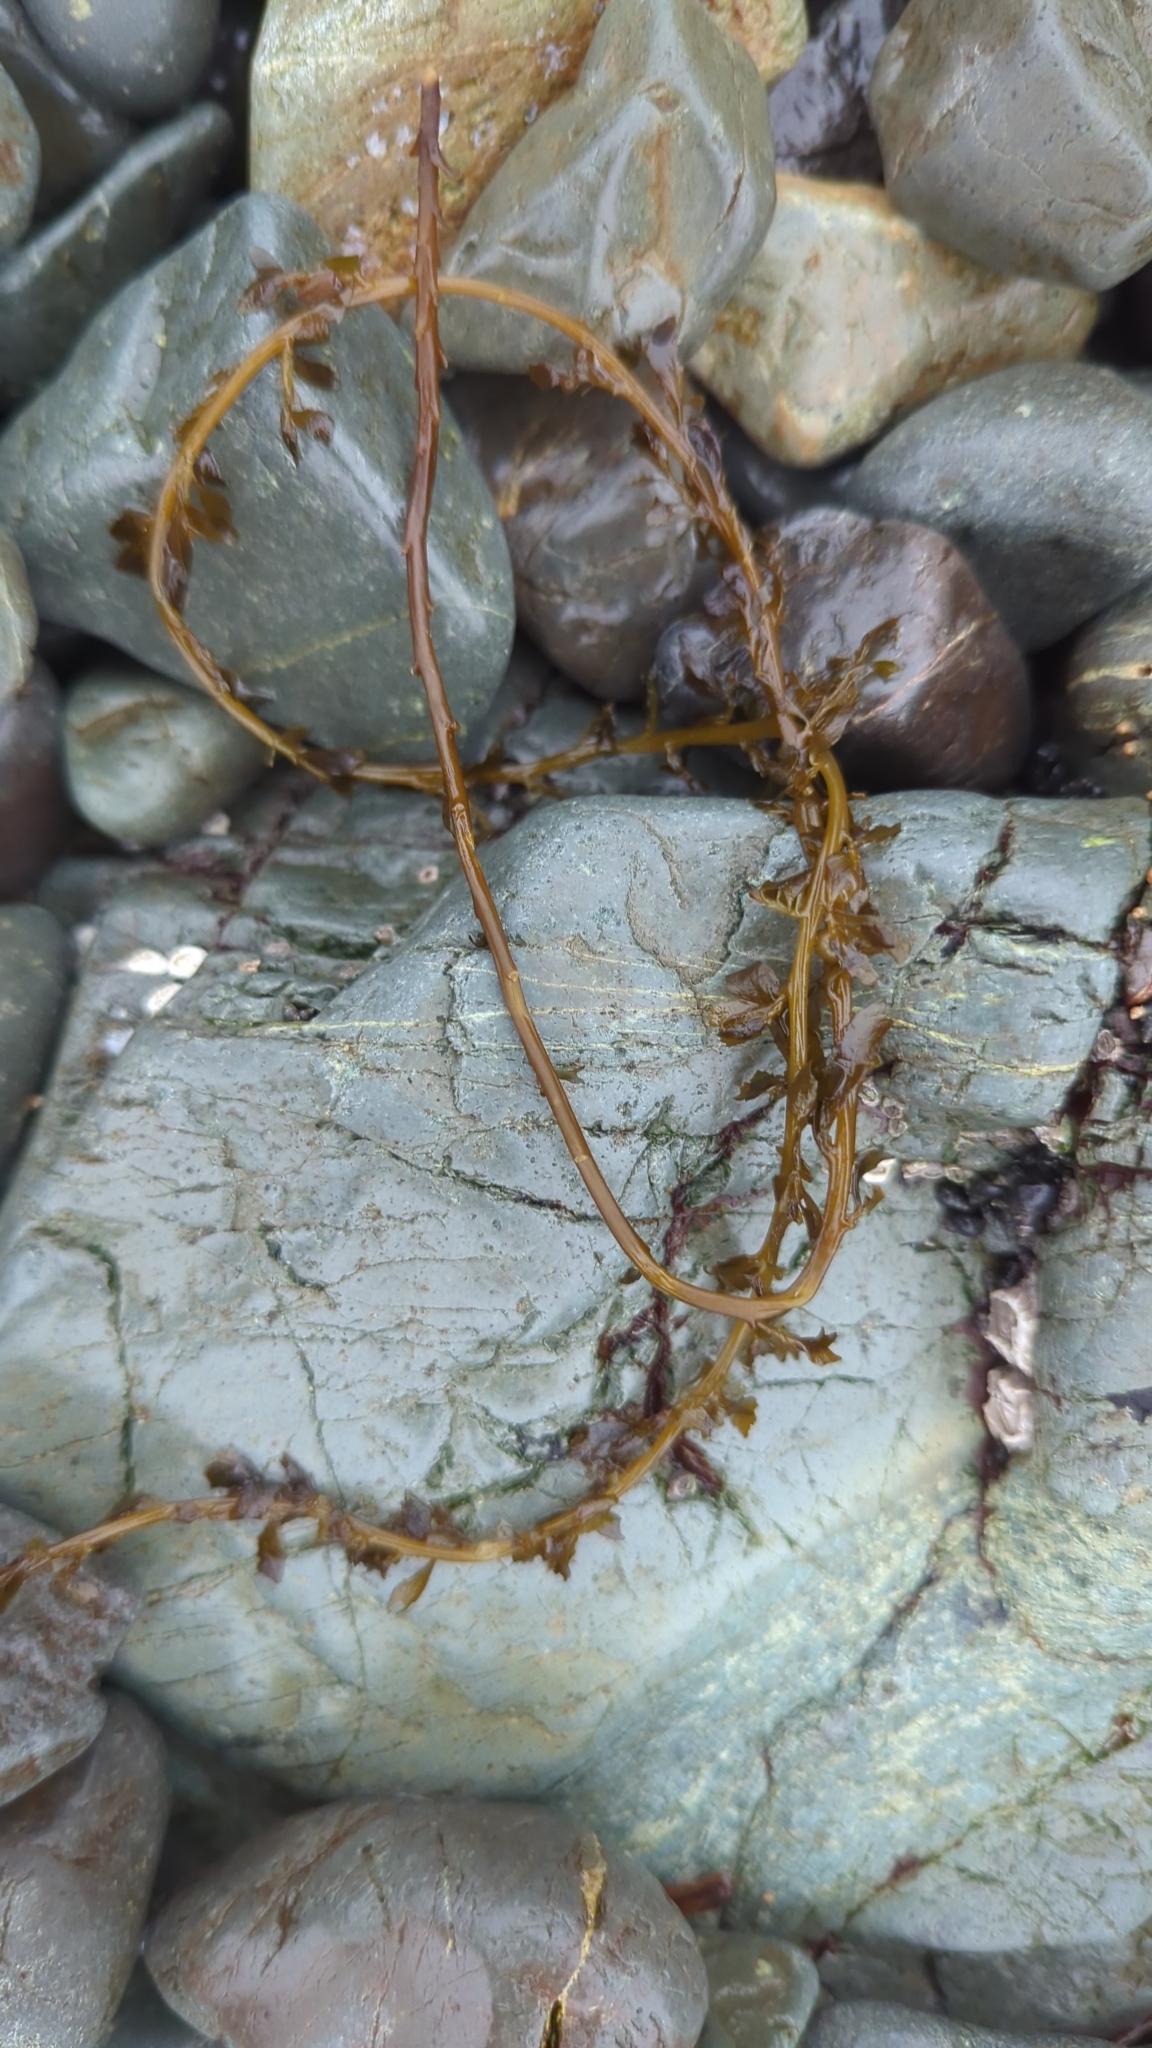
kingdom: Chromista
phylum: Ochrophyta
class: Phaeophyceae
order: Fucales
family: Sargassaceae
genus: Sargassum
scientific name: Sargassum muticum
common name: Japweed
